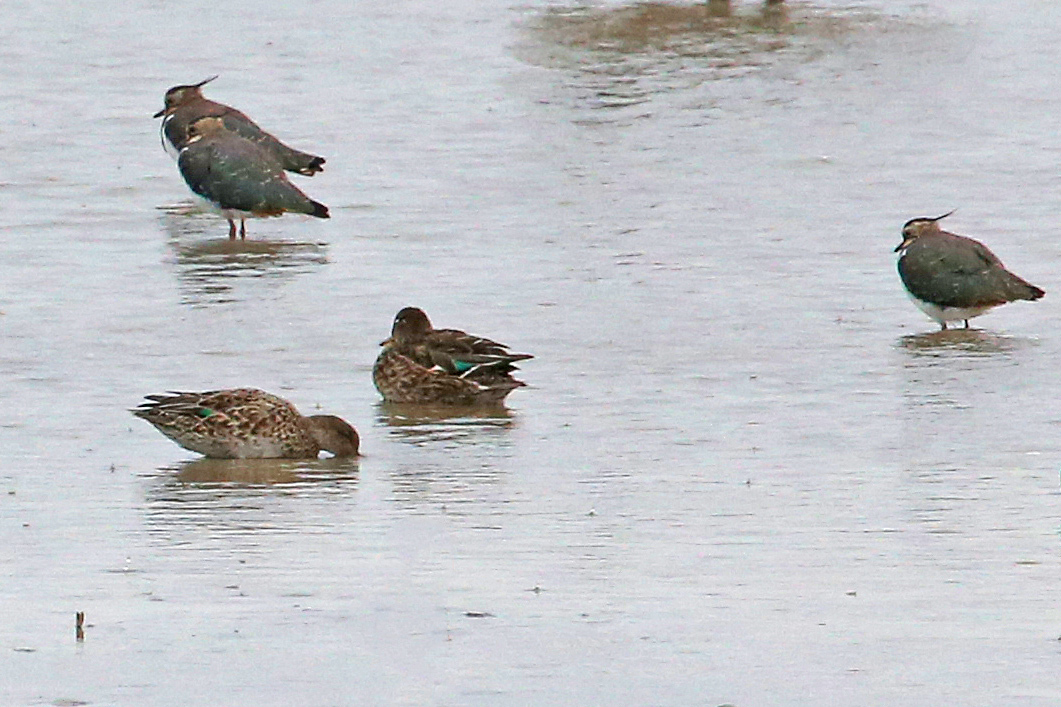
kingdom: Animalia
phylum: Chordata
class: Aves
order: Charadriiformes
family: Charadriidae
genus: Vanellus
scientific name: Vanellus vanellus
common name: Northern lapwing
